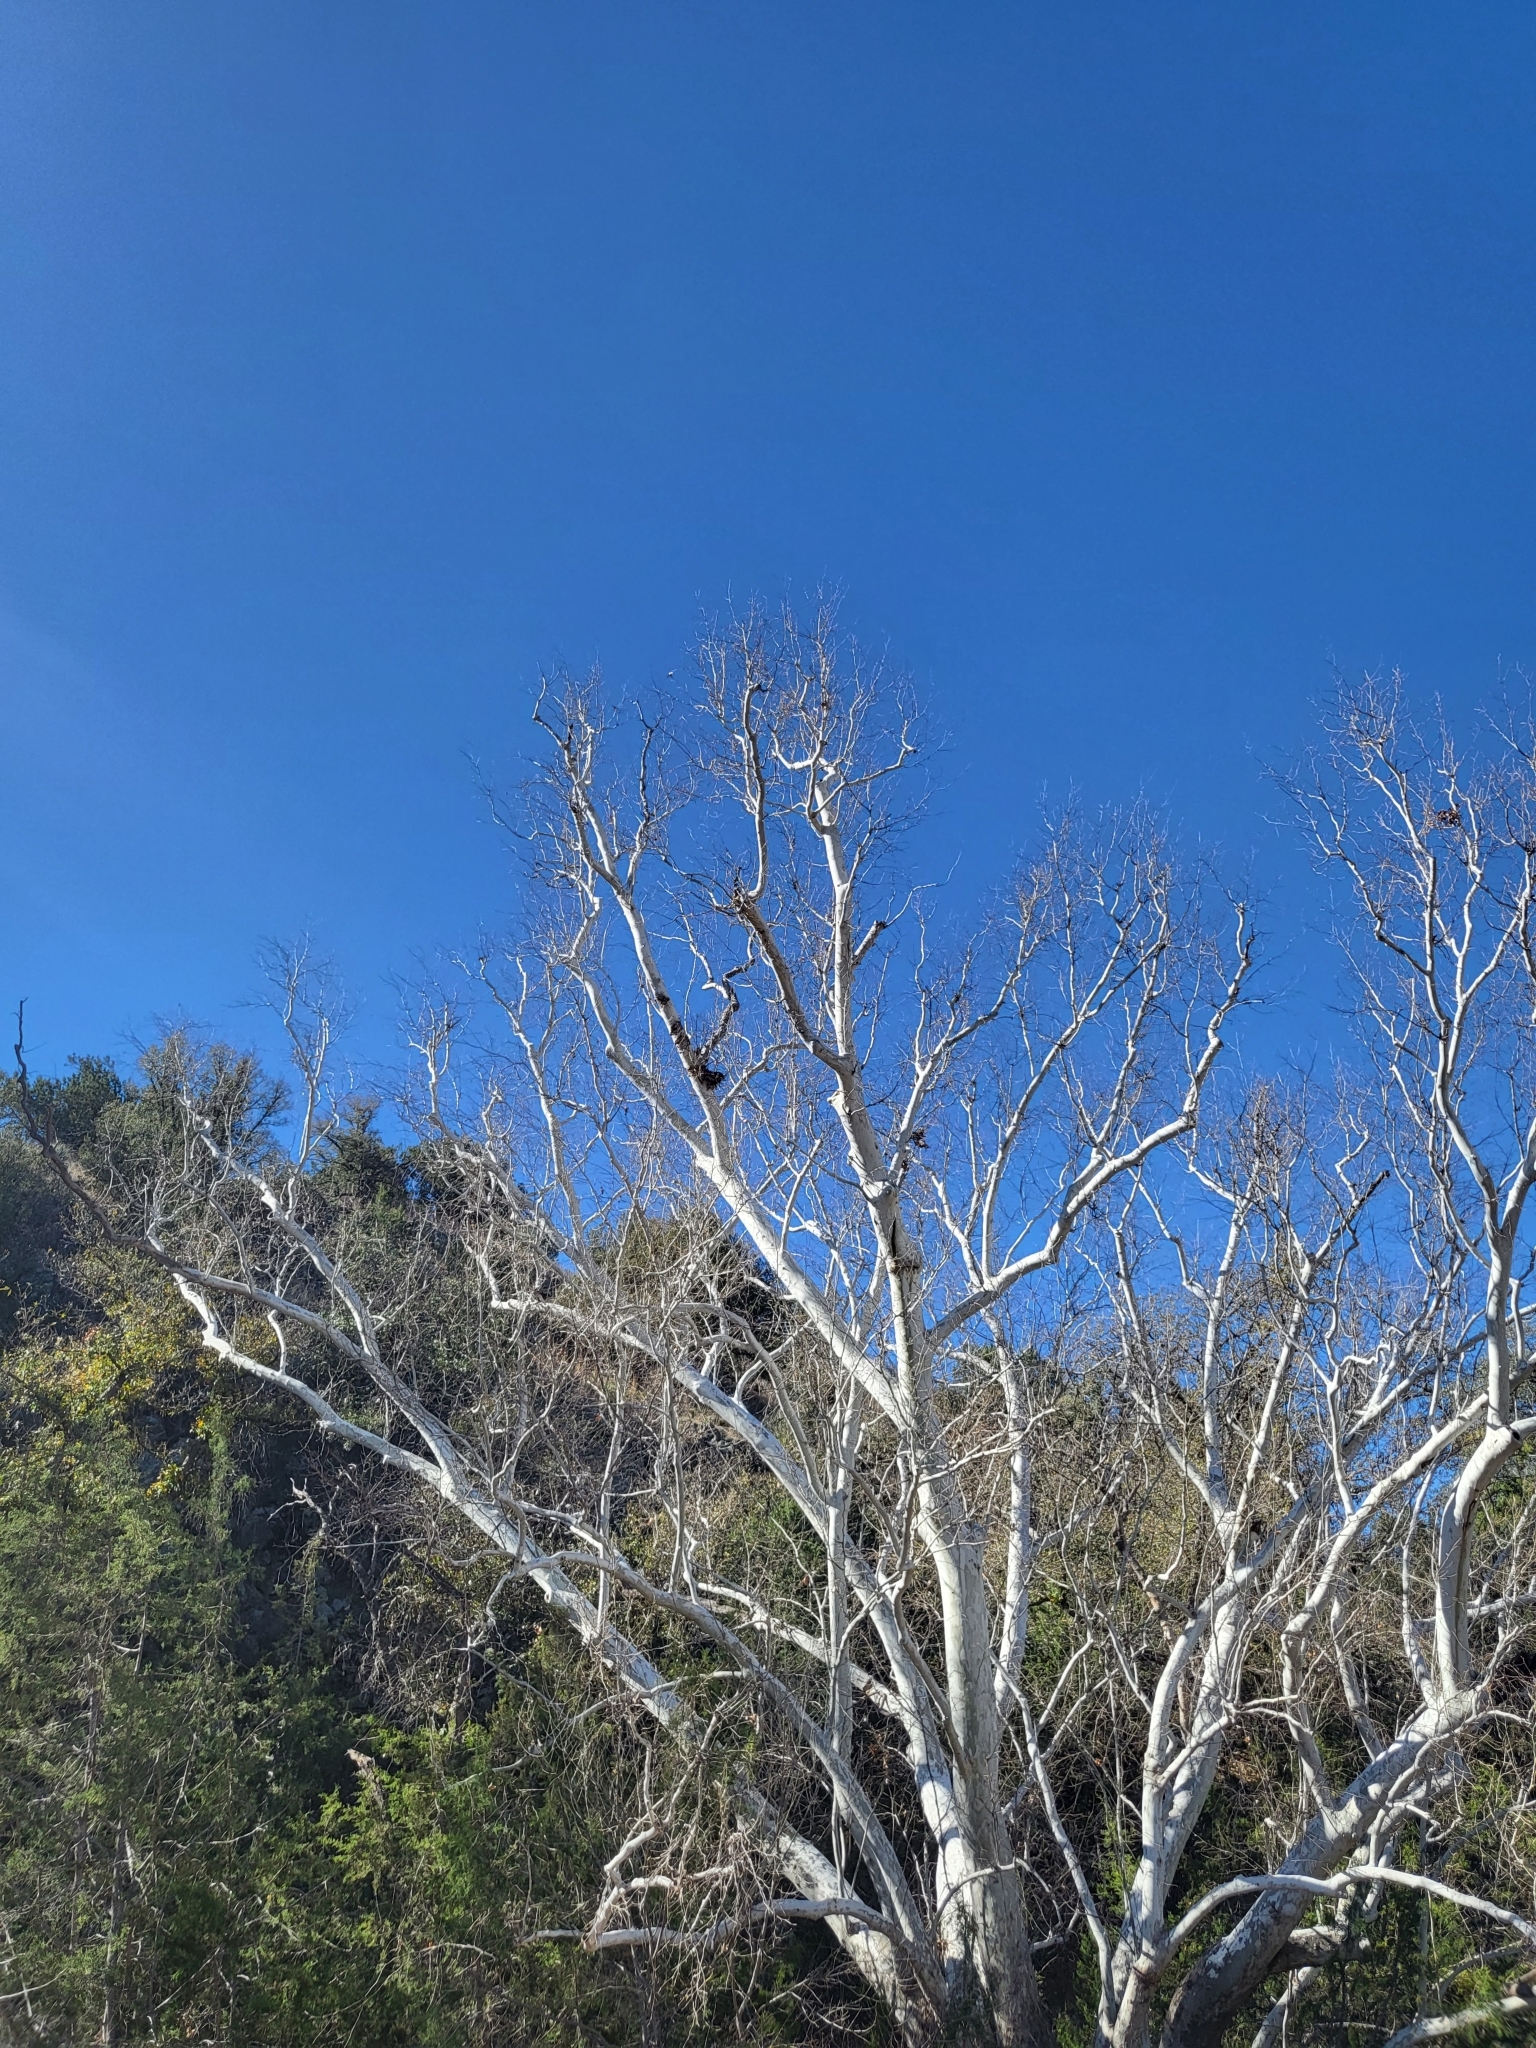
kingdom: Plantae
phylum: Tracheophyta
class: Magnoliopsida
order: Proteales
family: Platanaceae
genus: Platanus
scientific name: Platanus wrightii
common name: Arizona sycamore
